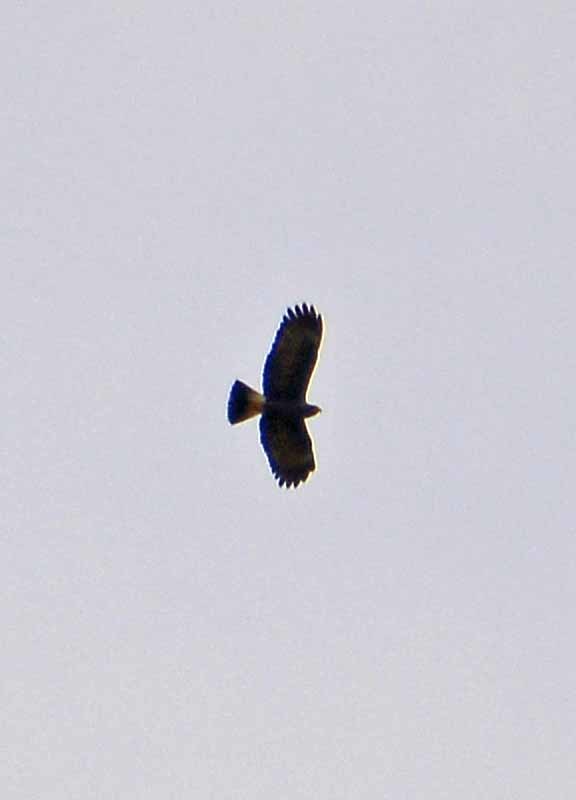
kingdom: Animalia
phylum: Chordata
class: Aves
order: Accipitriformes
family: Accipitridae
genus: Rostrhamus
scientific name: Rostrhamus sociabilis
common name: Snail kite
